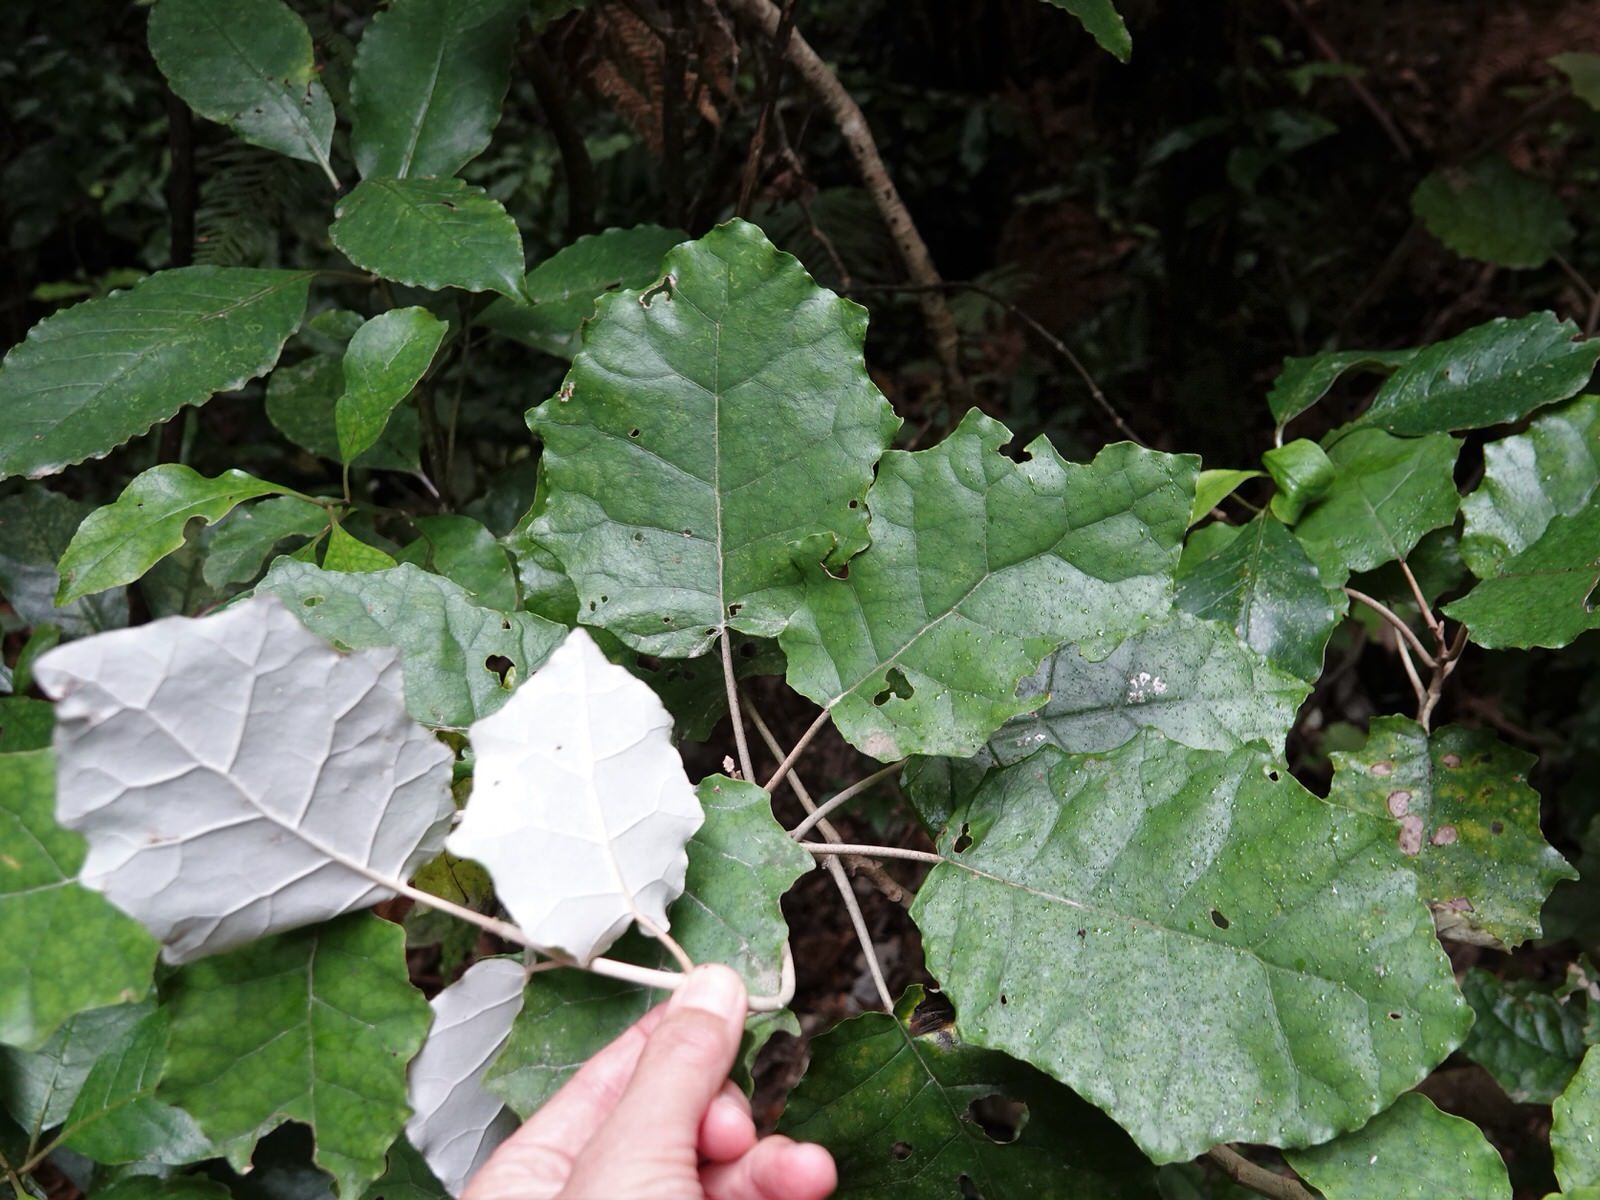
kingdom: Plantae
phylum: Tracheophyta
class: Magnoliopsida
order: Asterales
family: Asteraceae
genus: Brachyglottis
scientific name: Brachyglottis repanda
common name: Hedge ragwort
